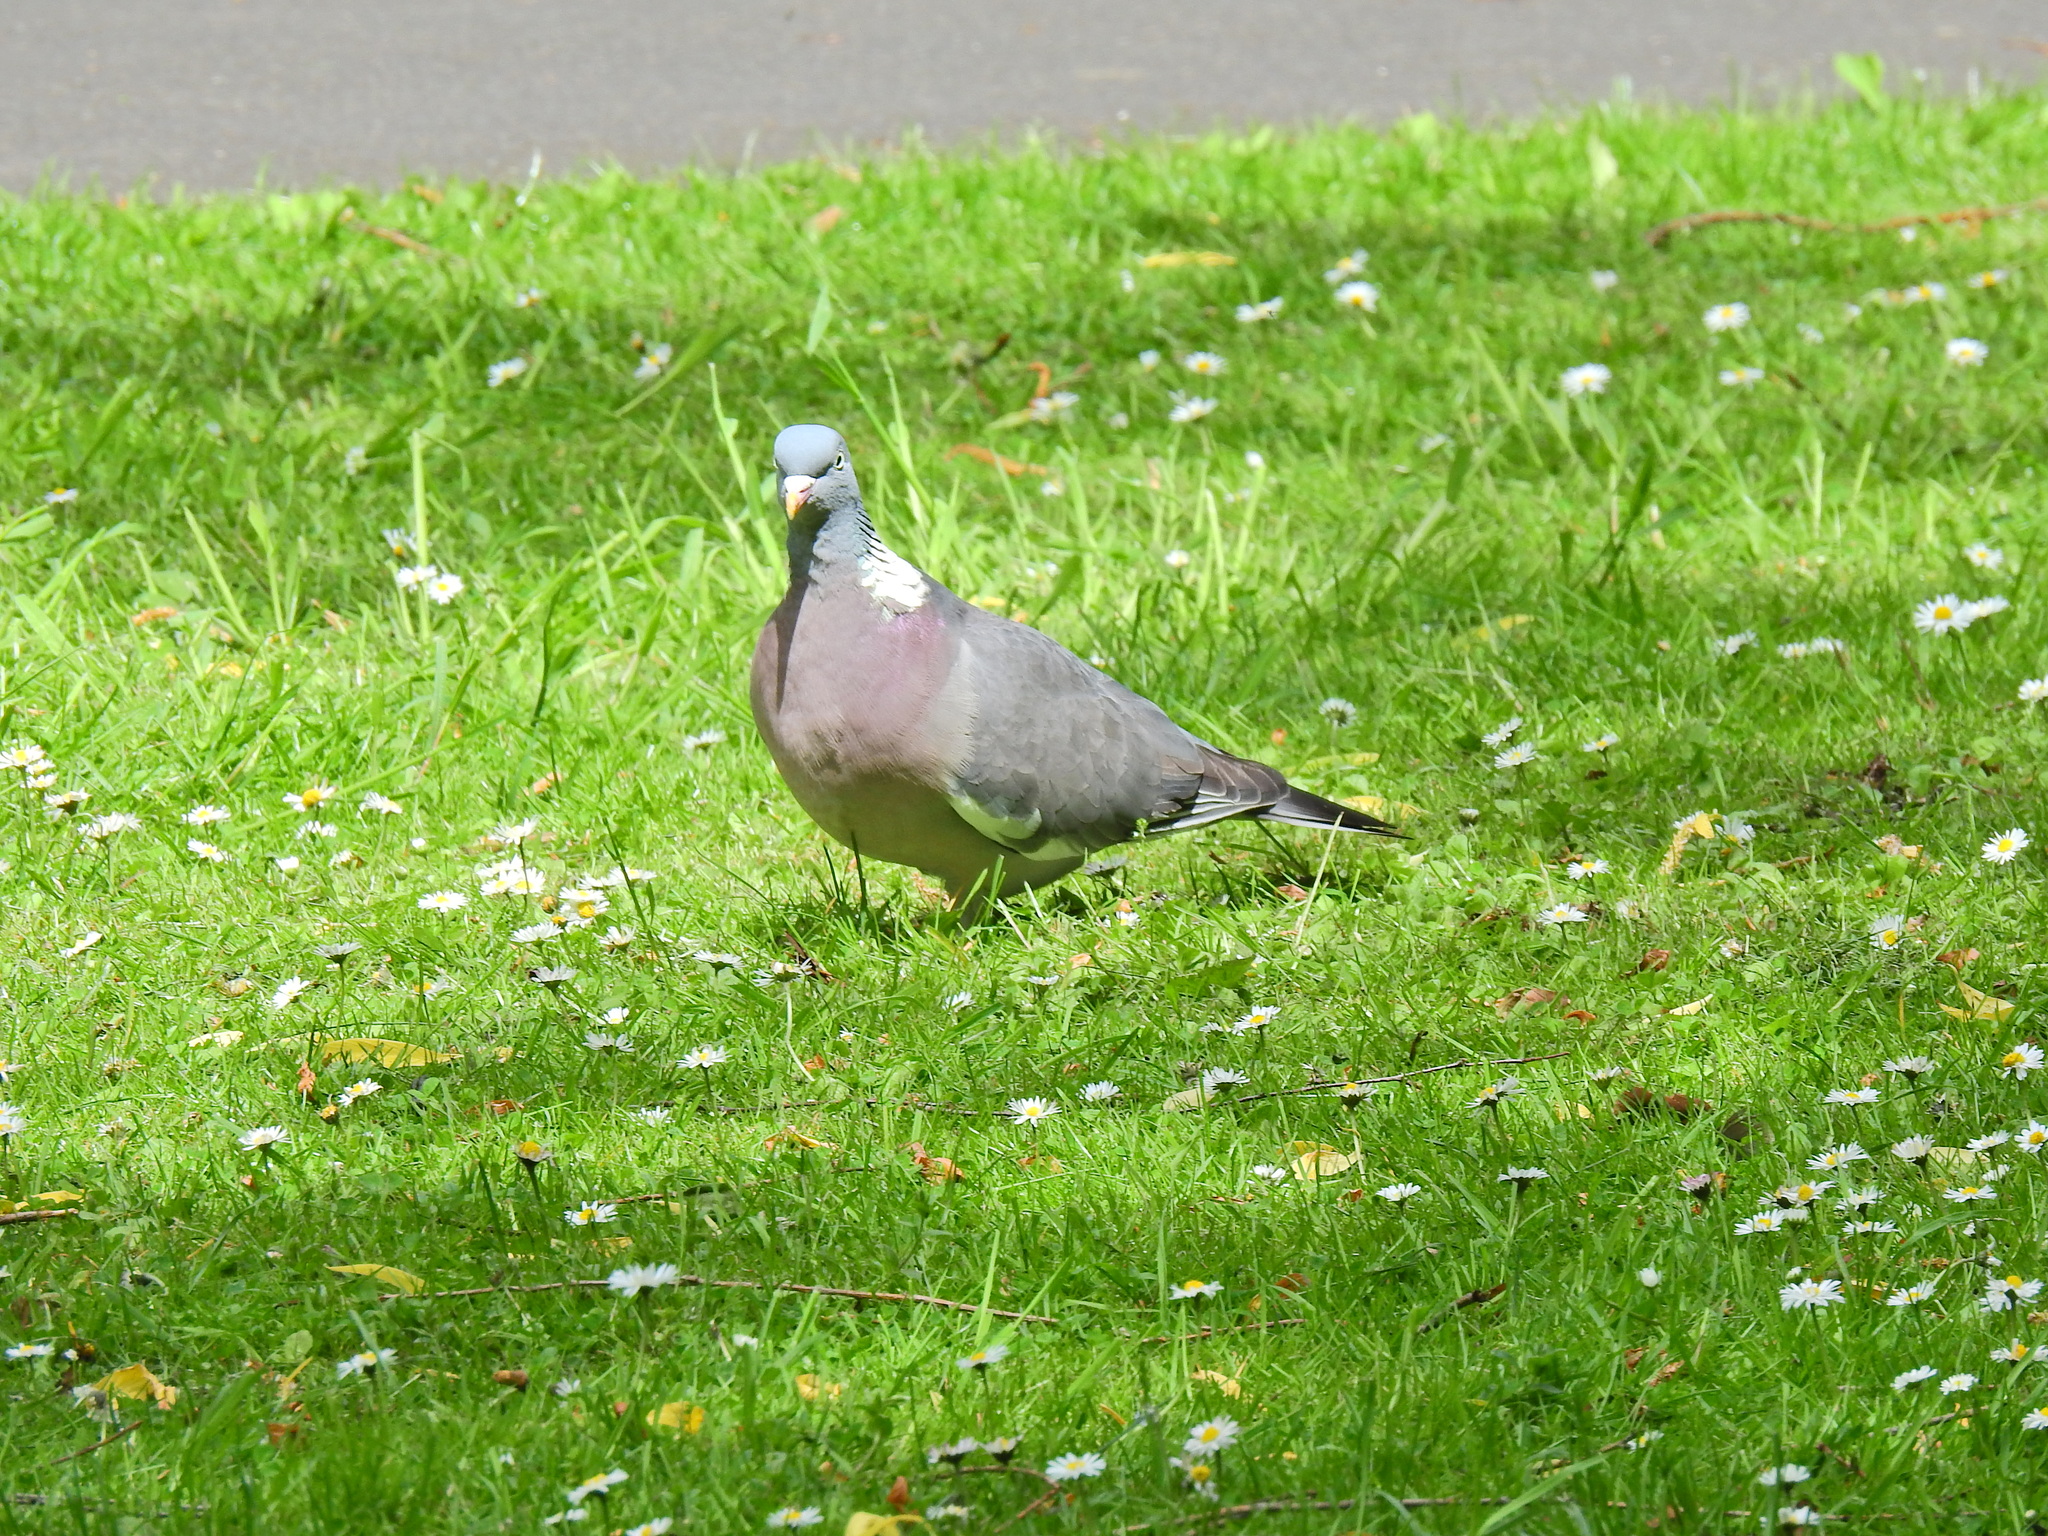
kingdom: Animalia
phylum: Chordata
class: Aves
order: Columbiformes
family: Columbidae
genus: Columba
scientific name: Columba palumbus
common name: Common wood pigeon
